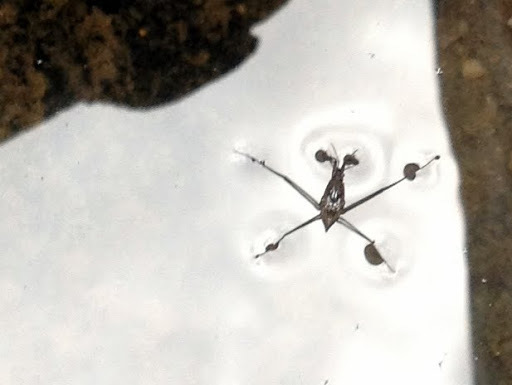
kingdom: Animalia
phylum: Arthropoda
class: Insecta
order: Hemiptera
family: Gerridae
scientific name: Gerridae
